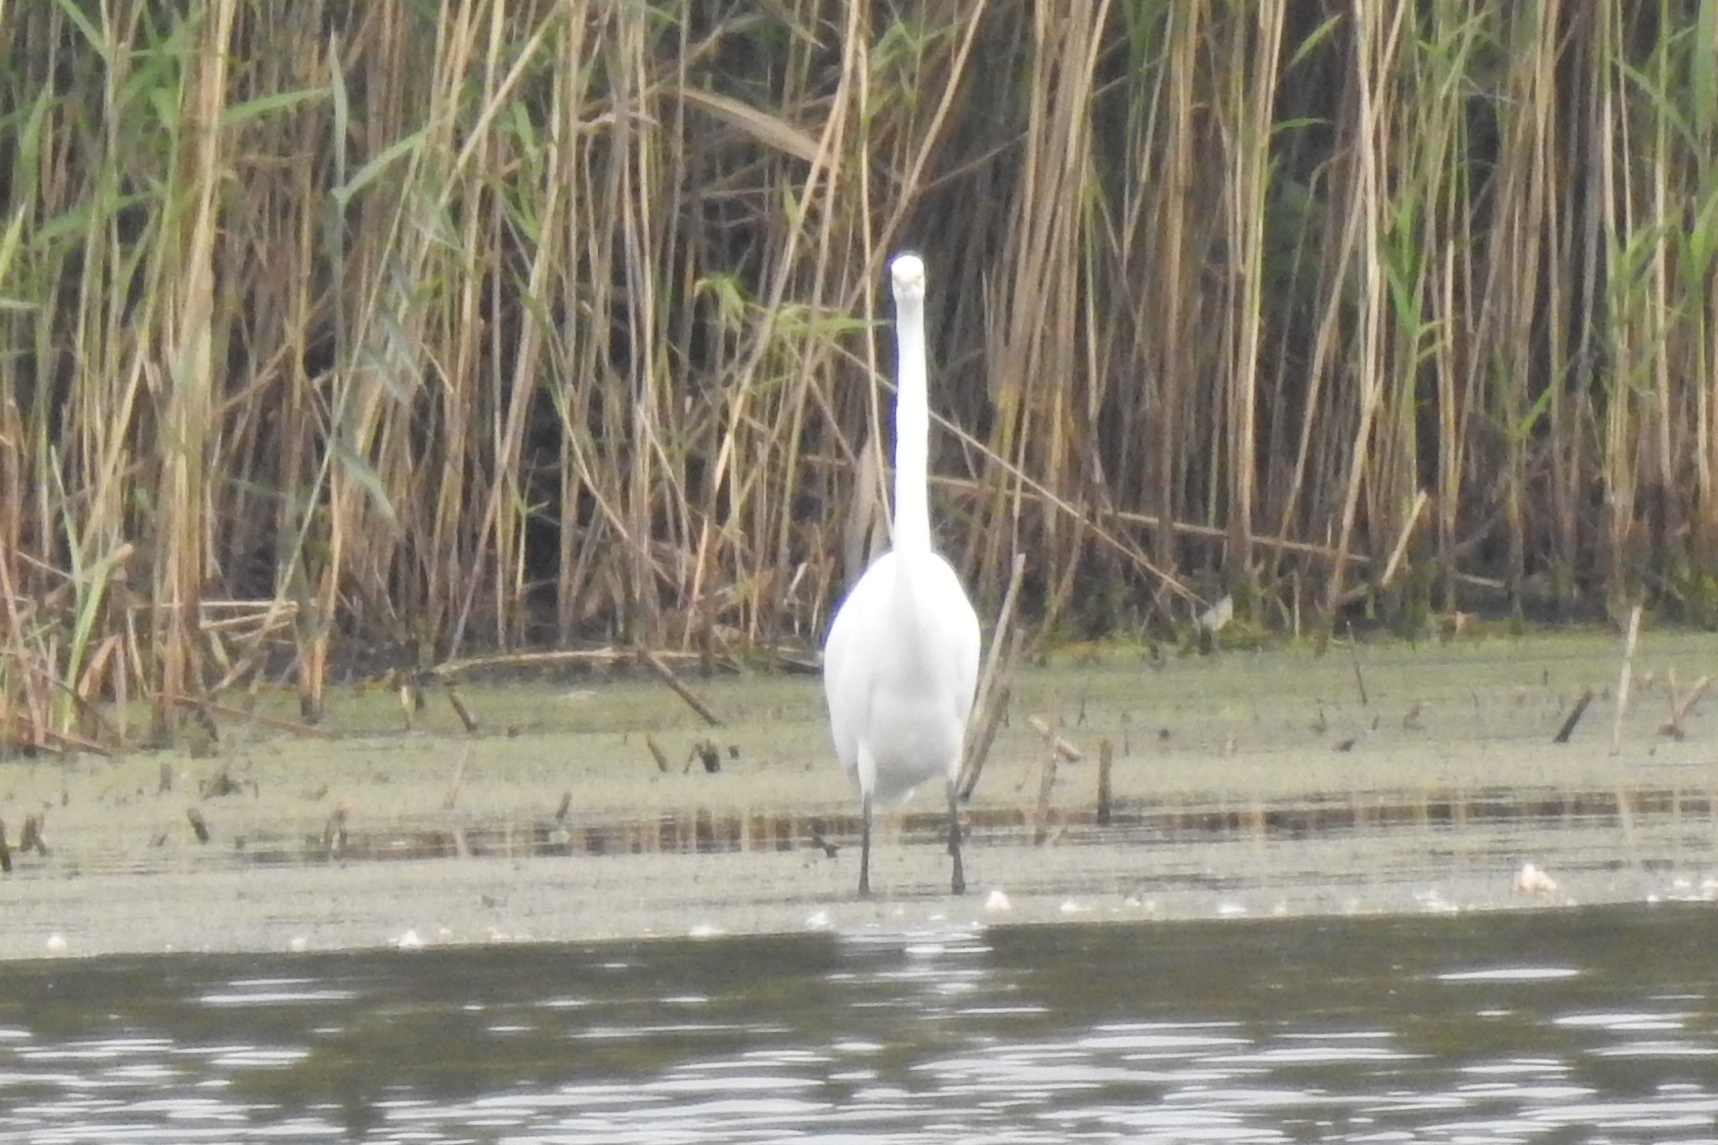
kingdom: Animalia
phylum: Chordata
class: Aves
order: Pelecaniformes
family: Ardeidae
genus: Ardea
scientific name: Ardea alba
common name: Great egret
